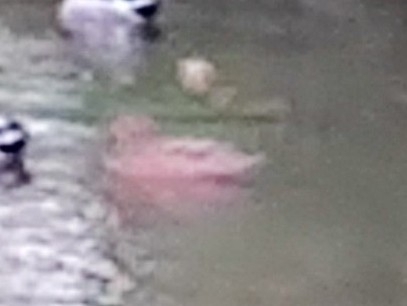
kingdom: Animalia
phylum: Chordata
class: Aves
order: Anseriformes
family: Anatidae
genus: Anas
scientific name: Anas platyrhynchos
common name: Mallard
